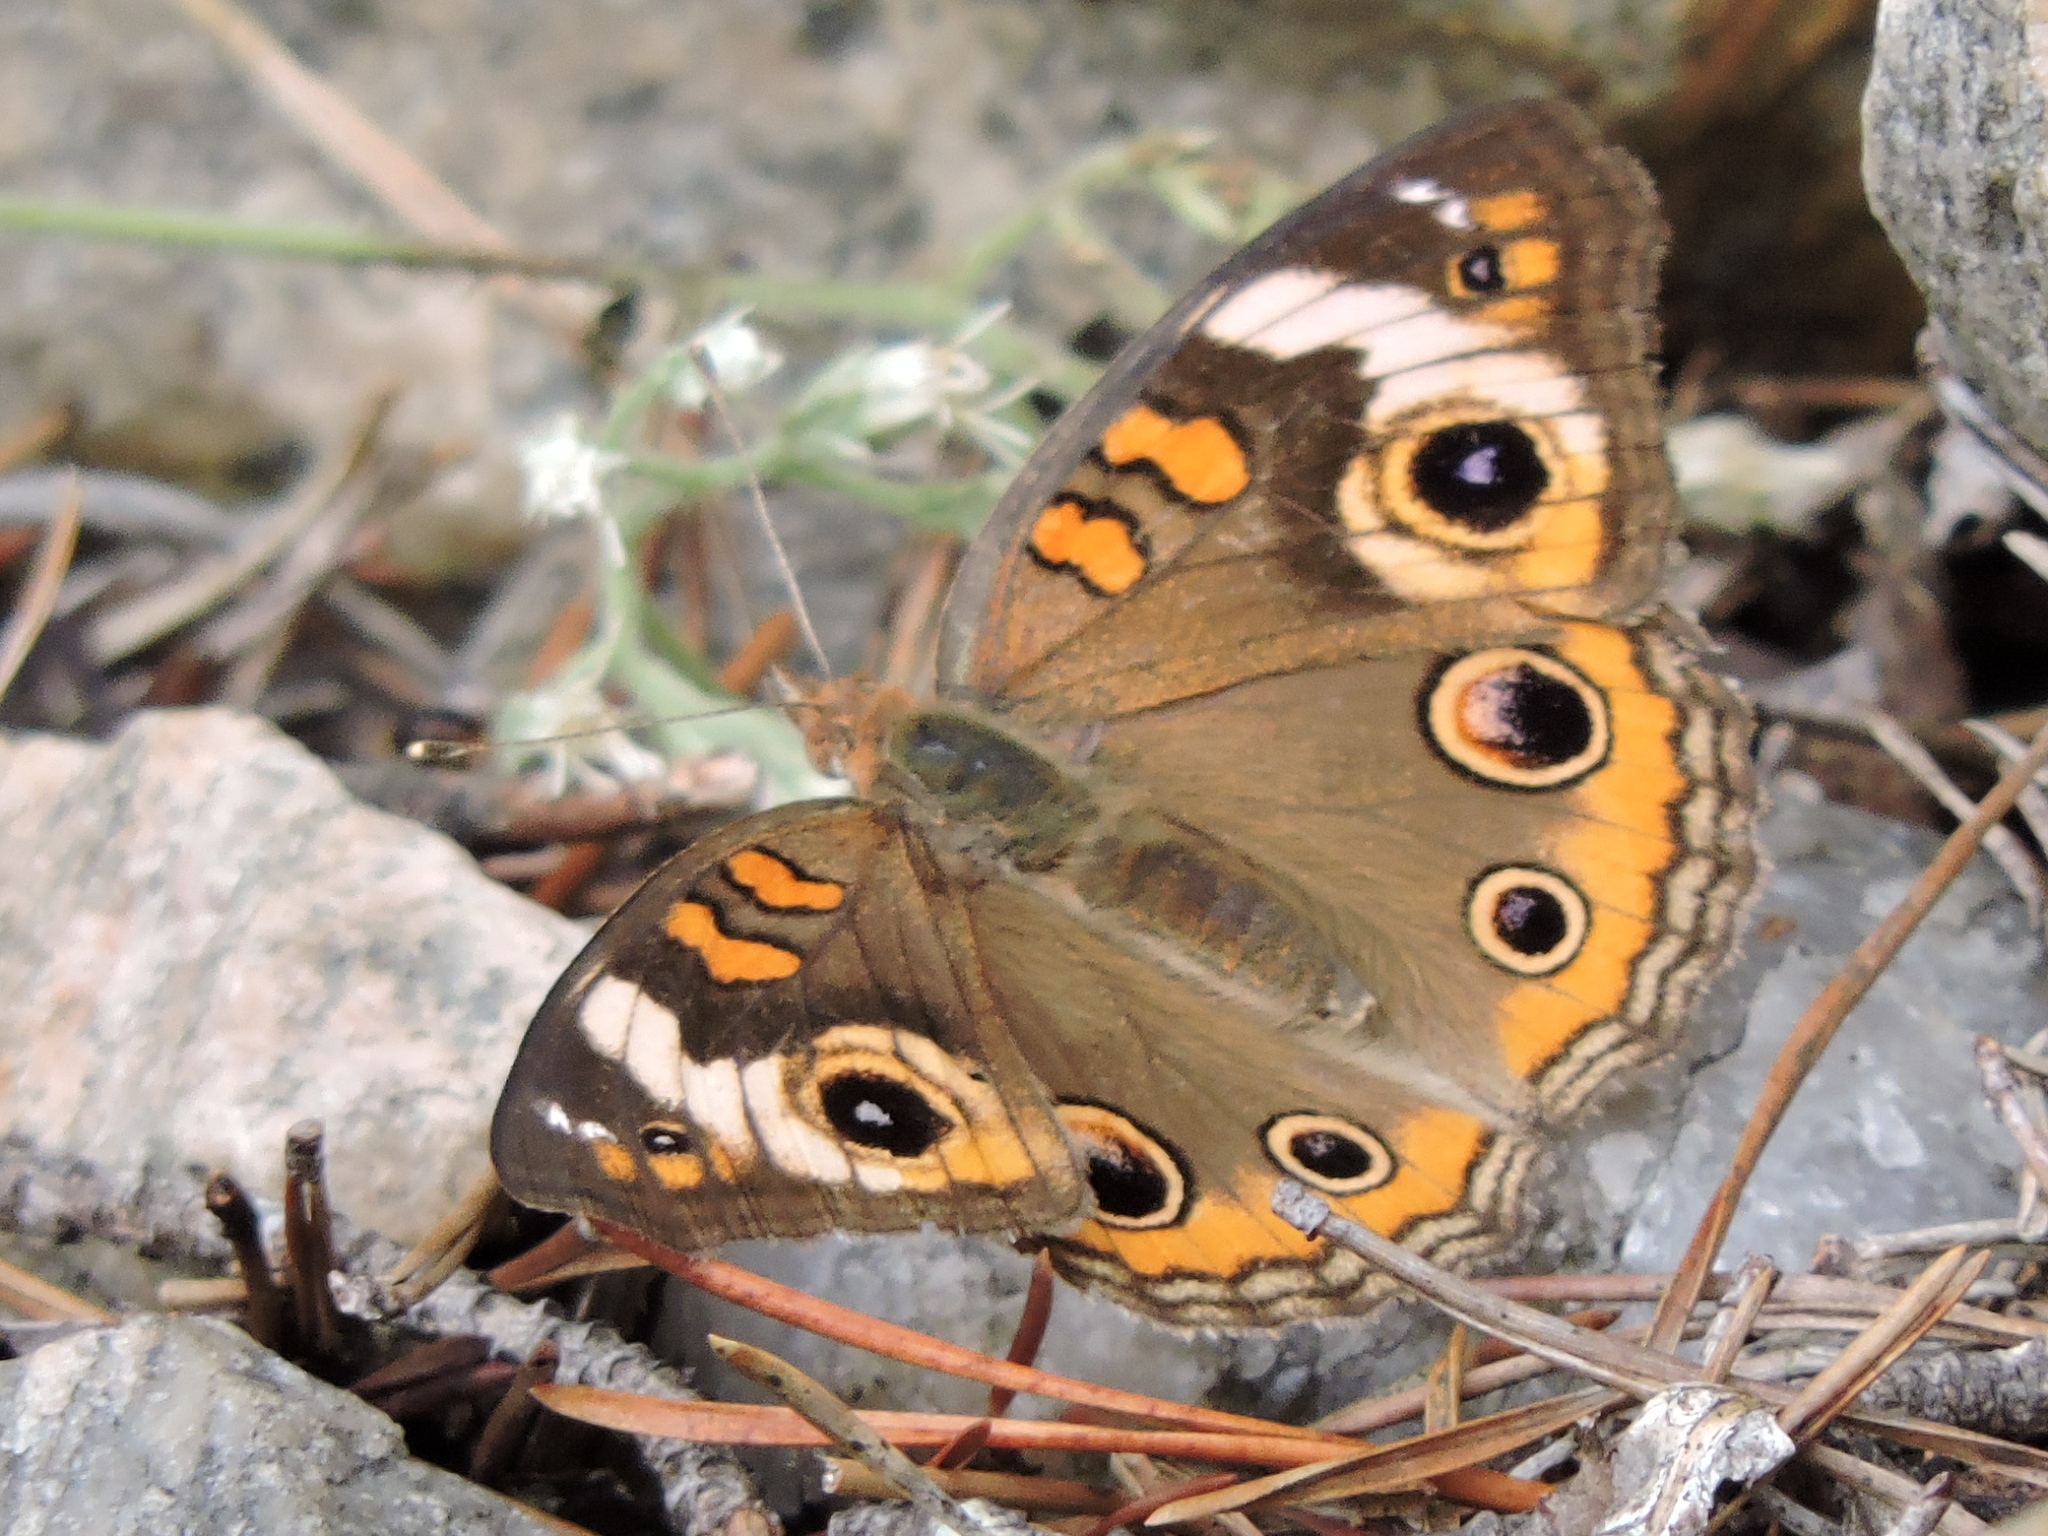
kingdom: Animalia
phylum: Arthropoda
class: Insecta
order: Lepidoptera
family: Nymphalidae
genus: Junonia
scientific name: Junonia coenia
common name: Common buckeye
